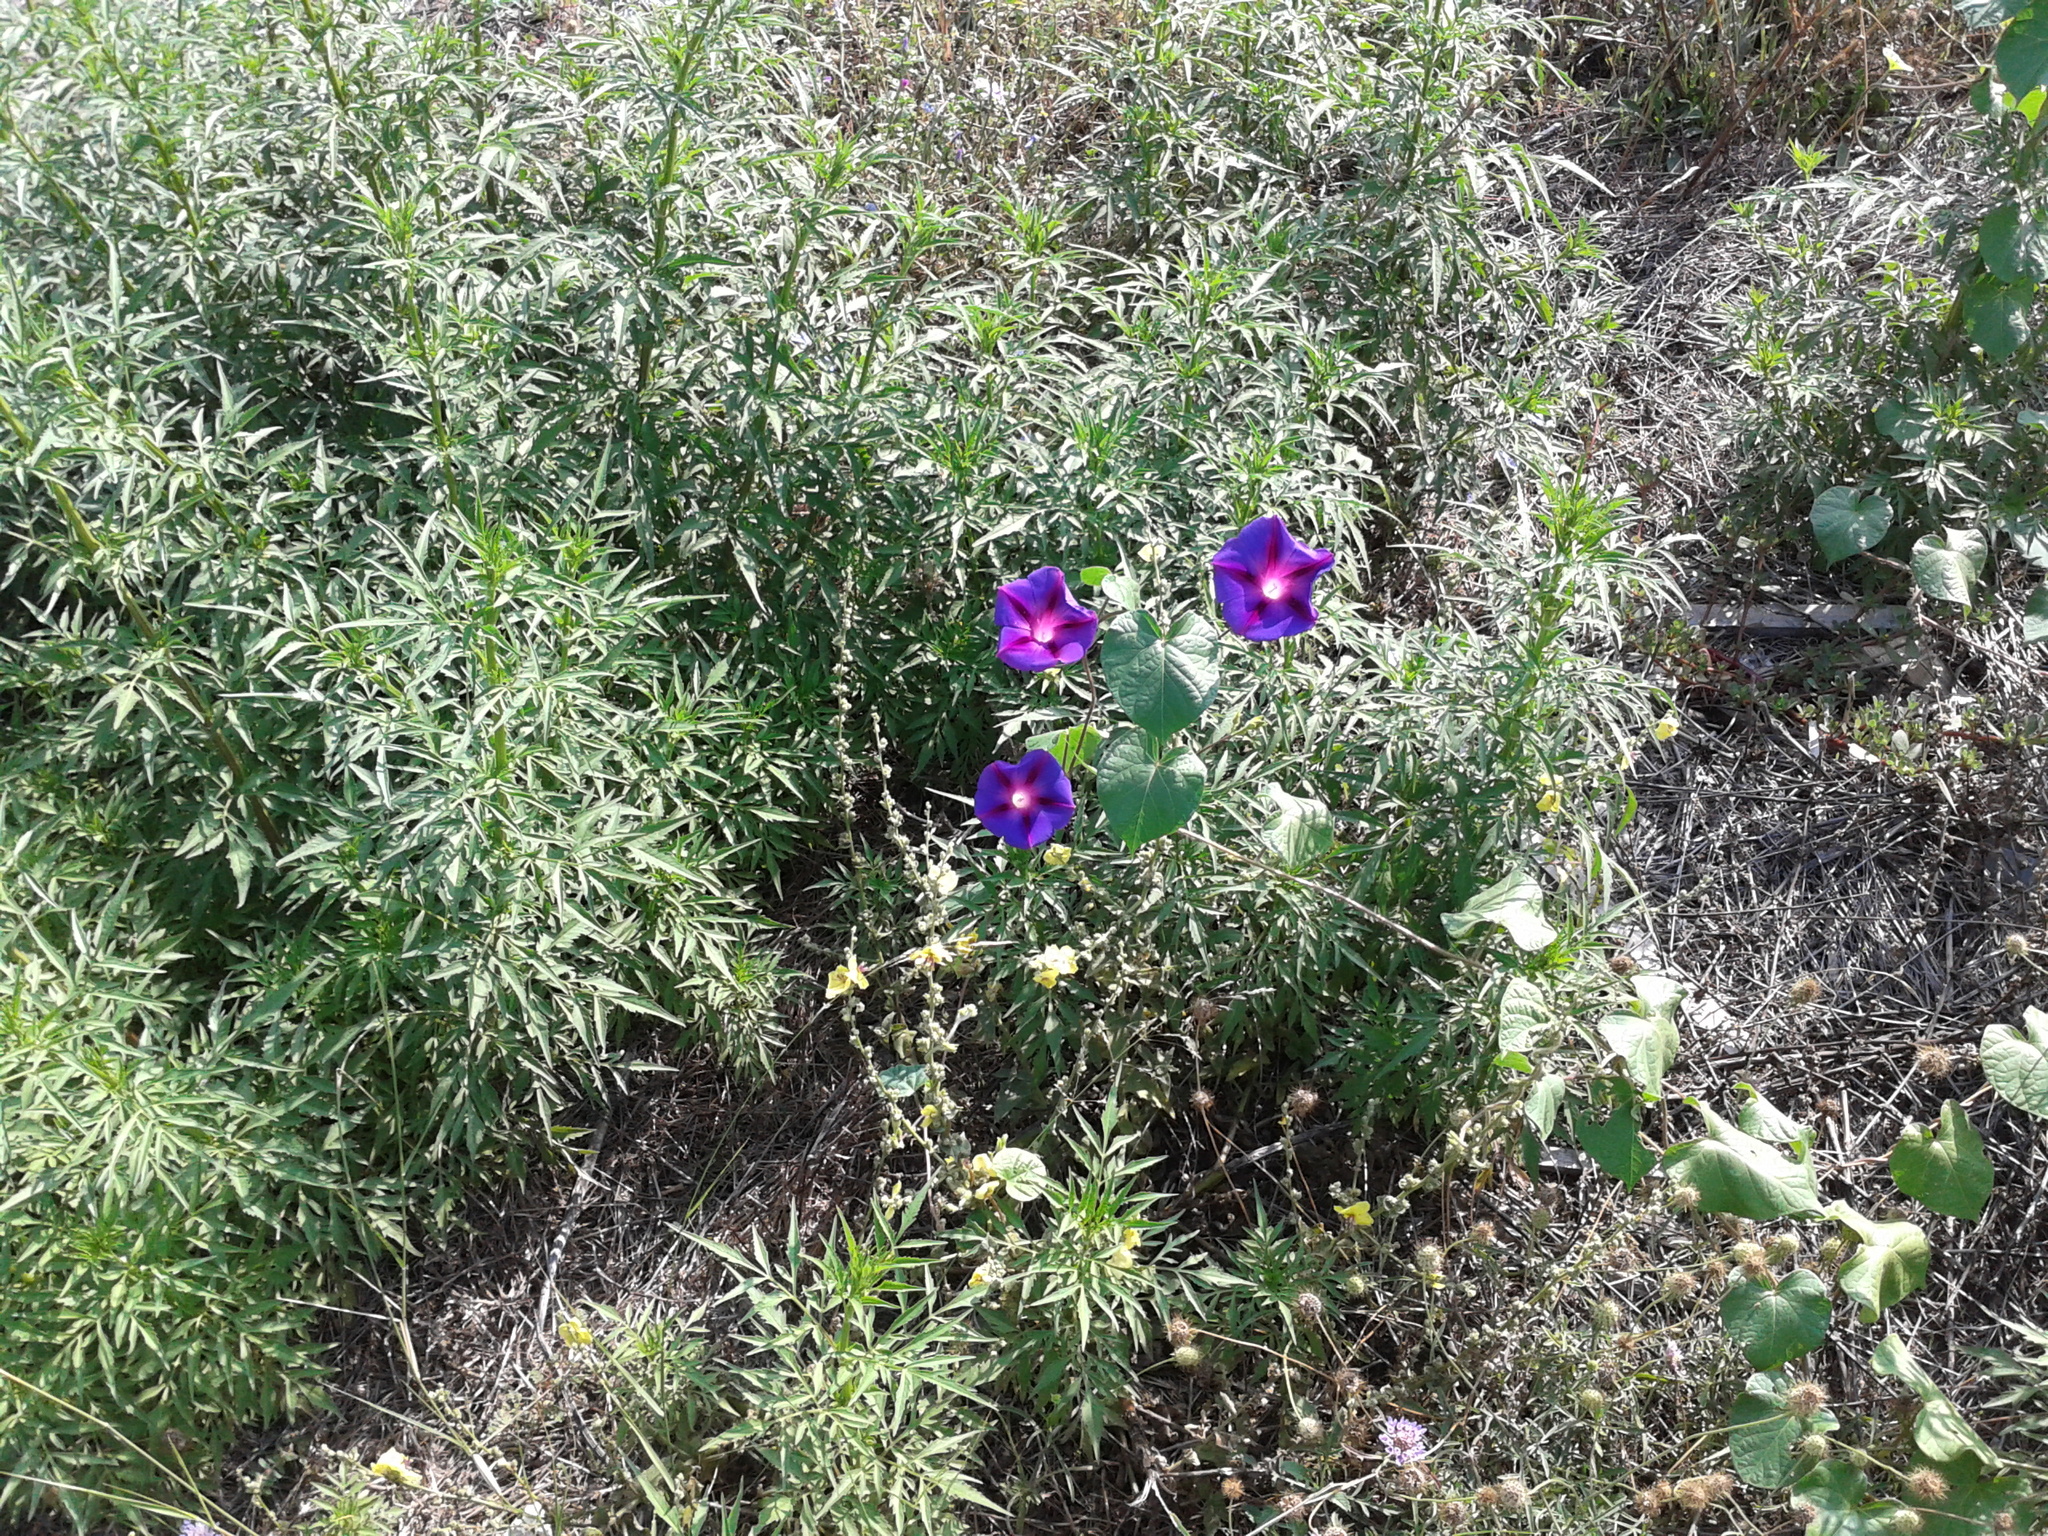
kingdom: Plantae
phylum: Tracheophyta
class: Magnoliopsida
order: Asterales
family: Asteraceae
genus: Bidens
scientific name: Bidens subalternans
